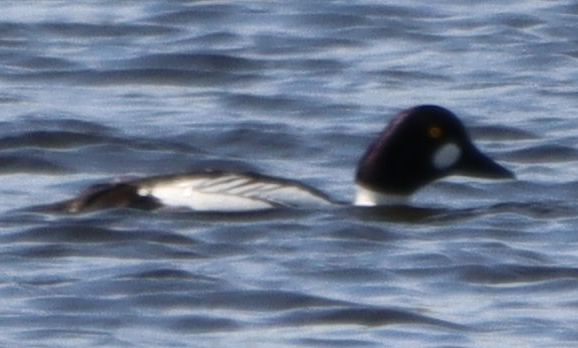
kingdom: Animalia
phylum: Chordata
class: Aves
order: Anseriformes
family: Anatidae
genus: Bucephala
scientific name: Bucephala clangula
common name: Common goldeneye
